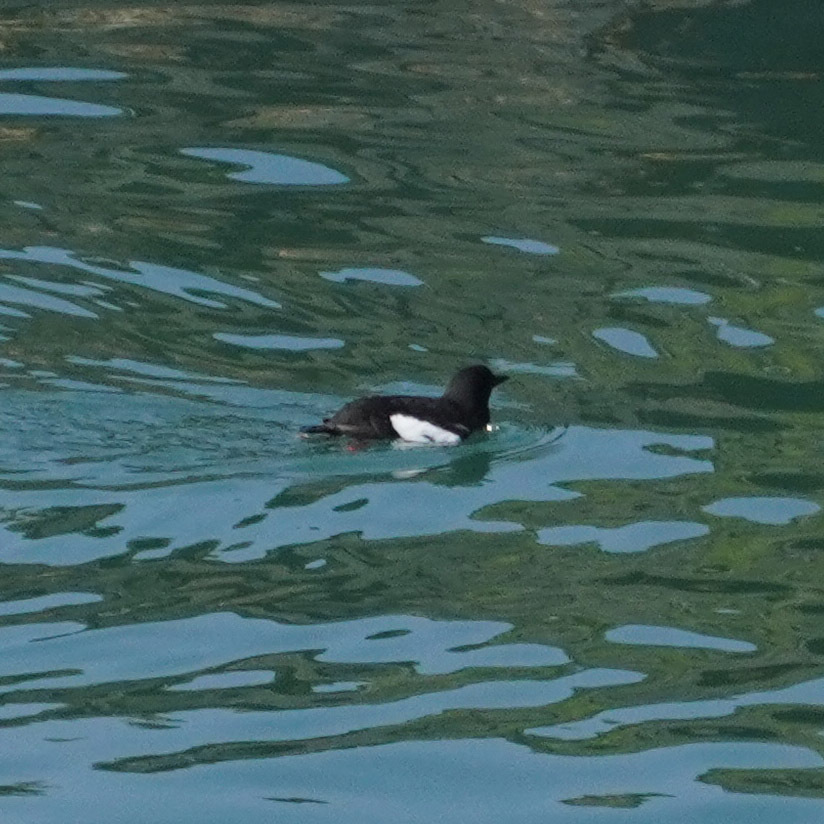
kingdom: Animalia
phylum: Chordata
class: Aves
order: Charadriiformes
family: Alcidae
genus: Cepphus
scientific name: Cepphus grylle
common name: Black guillemot
